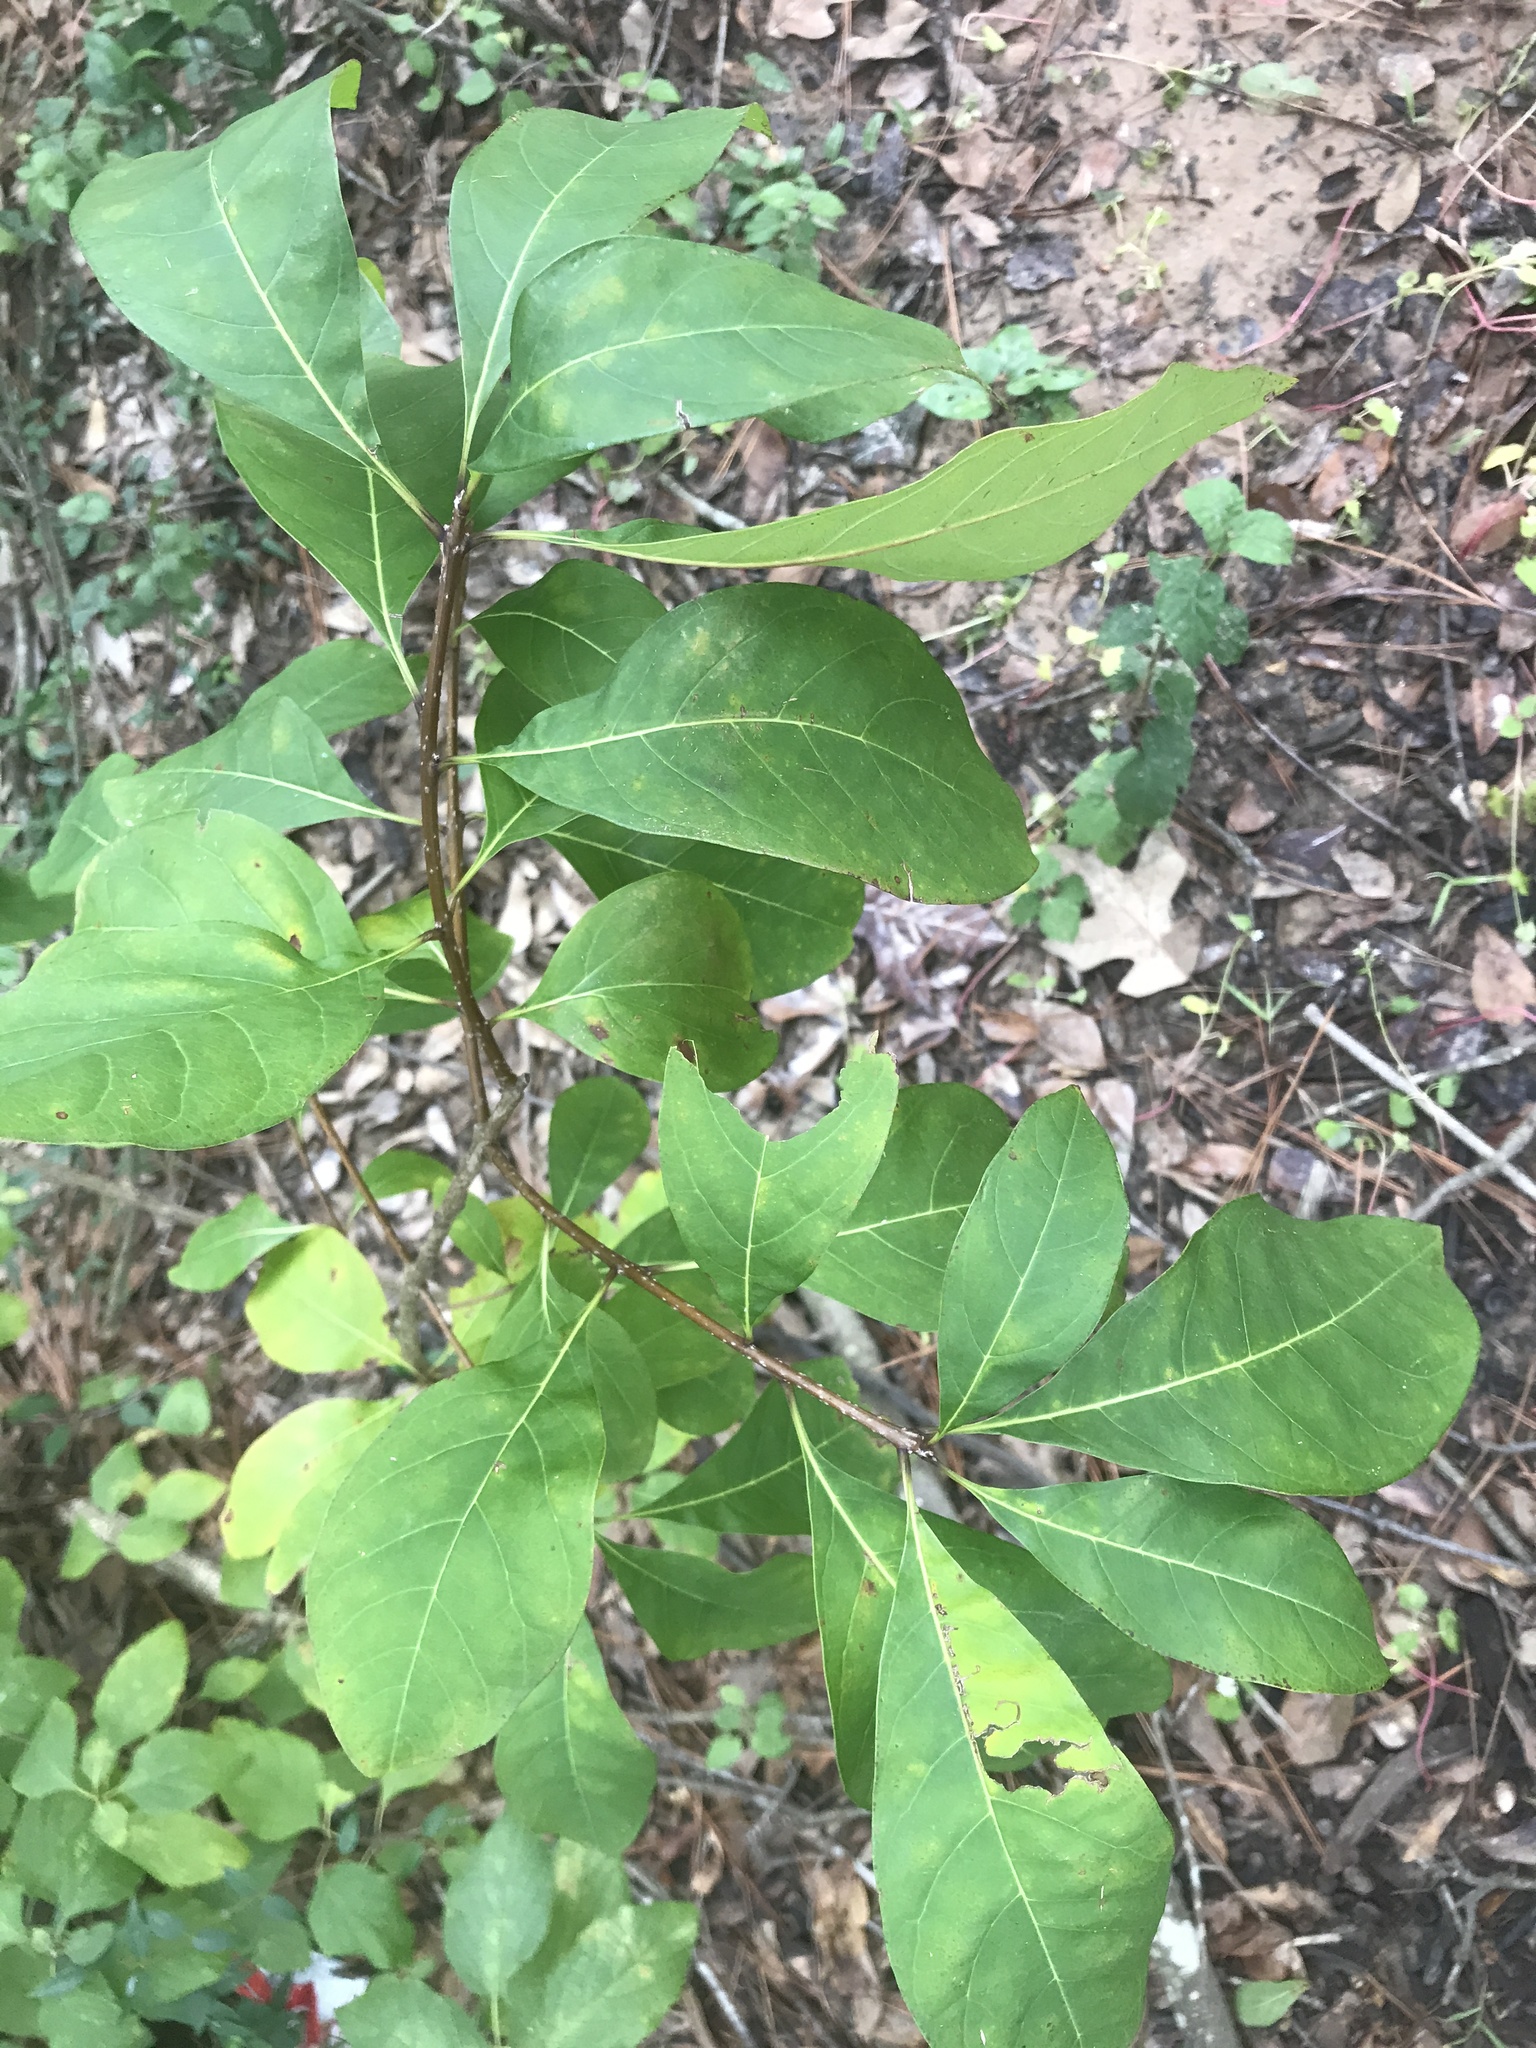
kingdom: Plantae
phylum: Tracheophyta
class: Magnoliopsida
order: Lamiales
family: Oleaceae
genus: Chionanthus
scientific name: Chionanthus virginicus
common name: American fringetree
